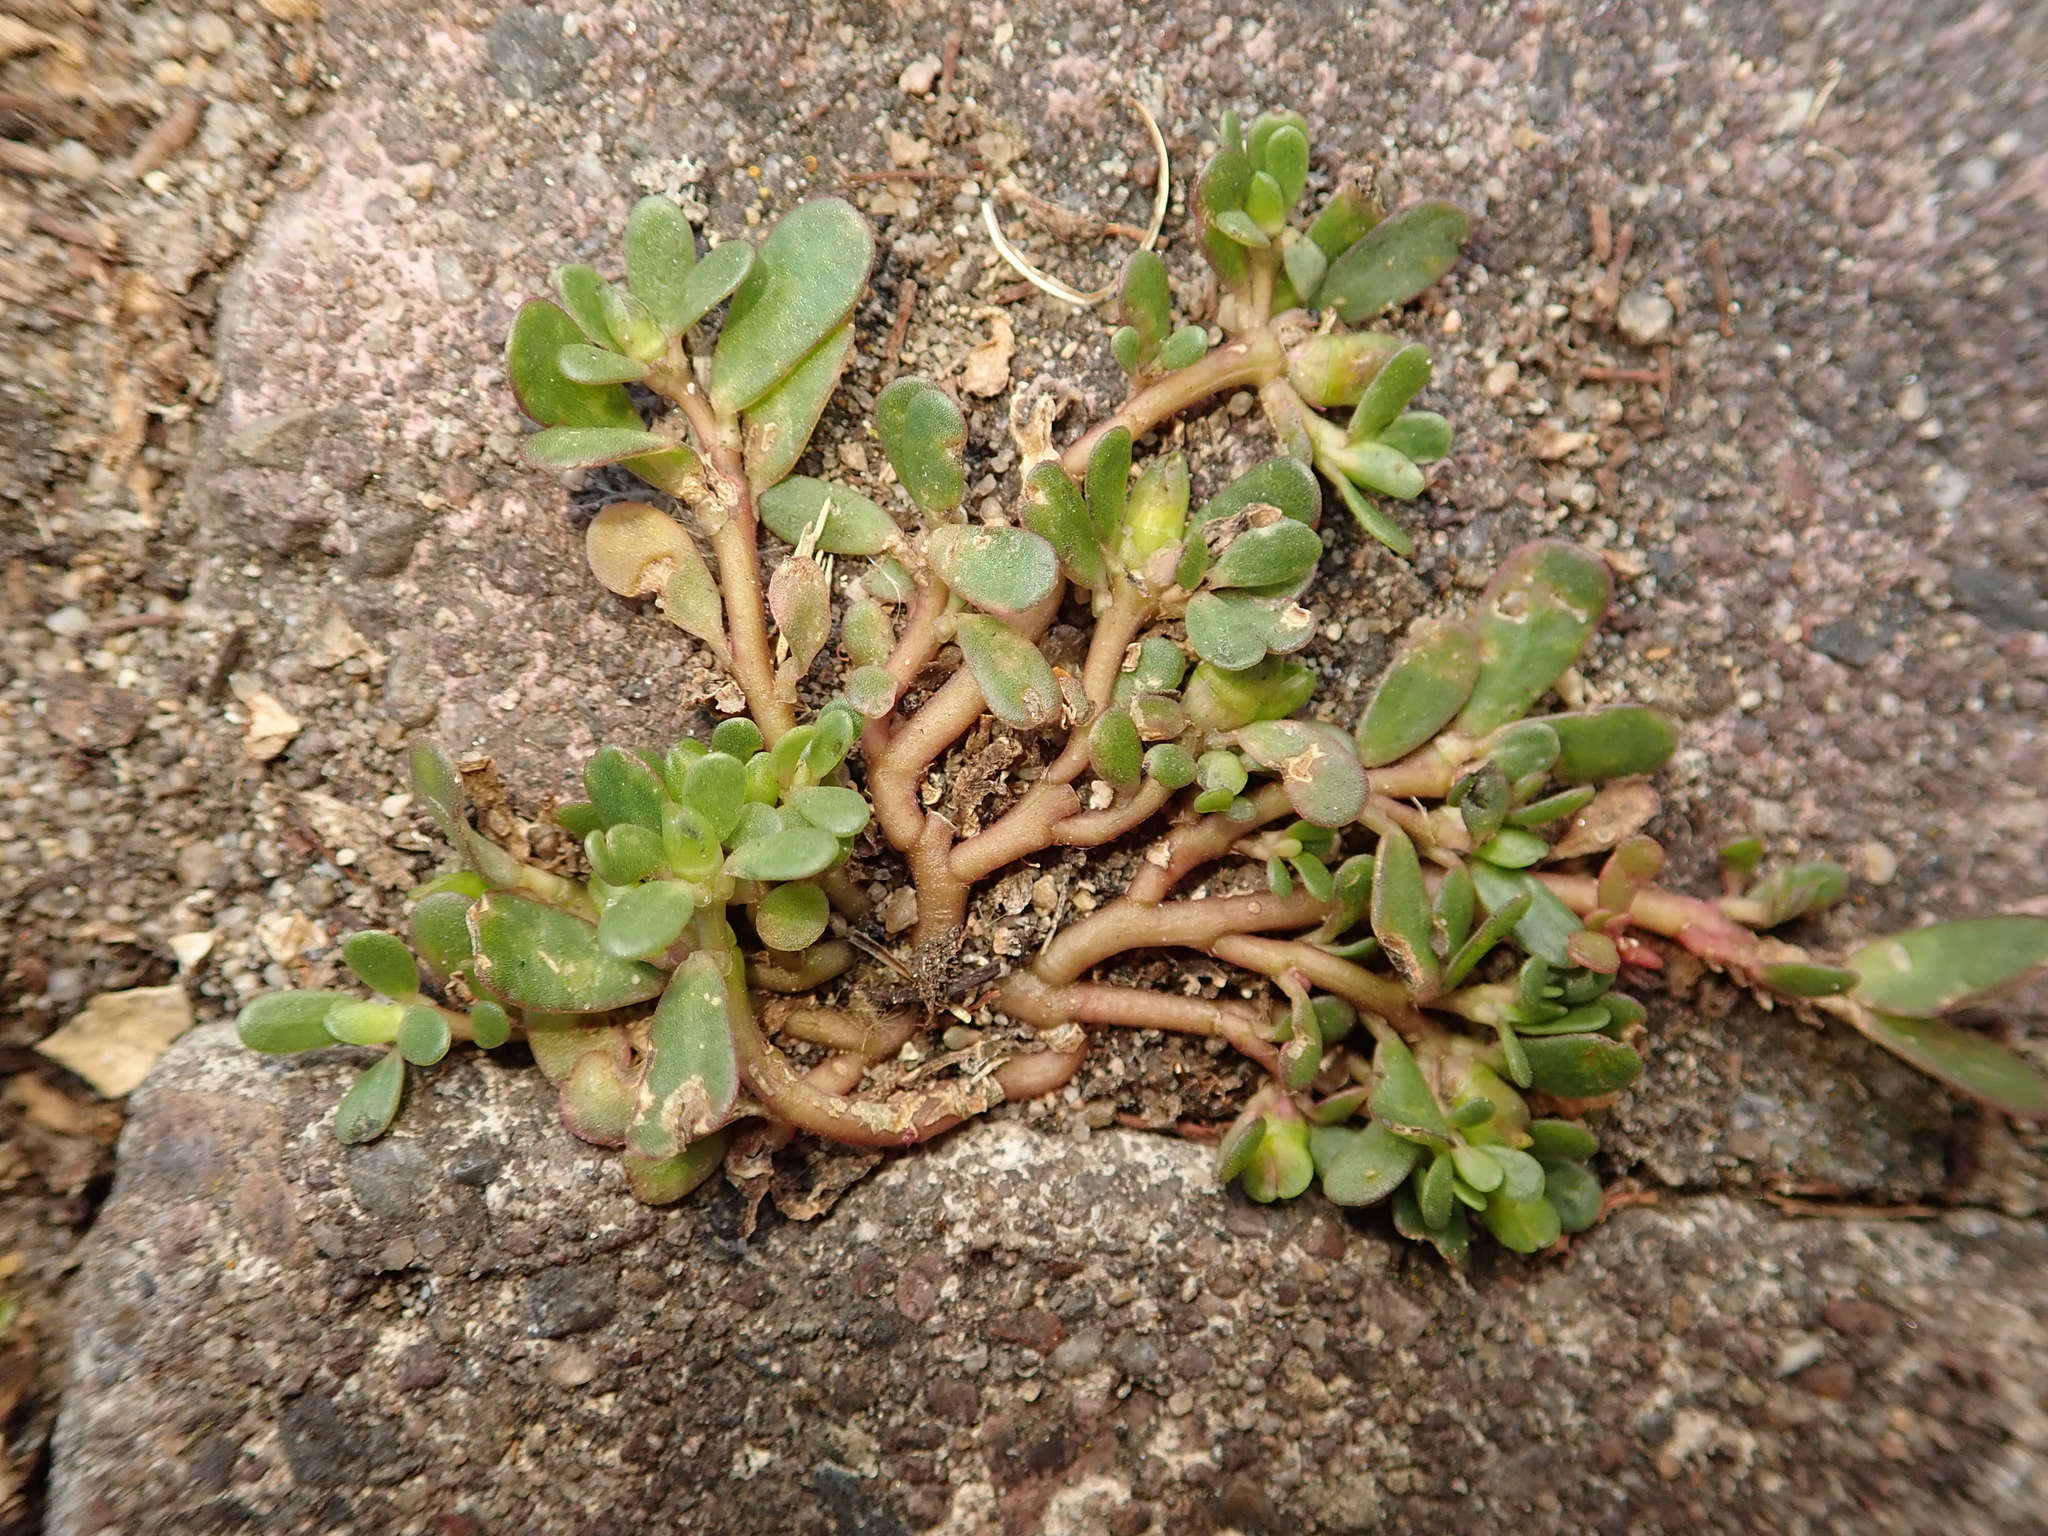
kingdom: Plantae
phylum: Tracheophyta
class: Magnoliopsida
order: Caryophyllales
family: Portulacaceae
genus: Portulaca
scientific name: Portulaca oleracea
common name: Common purslane
